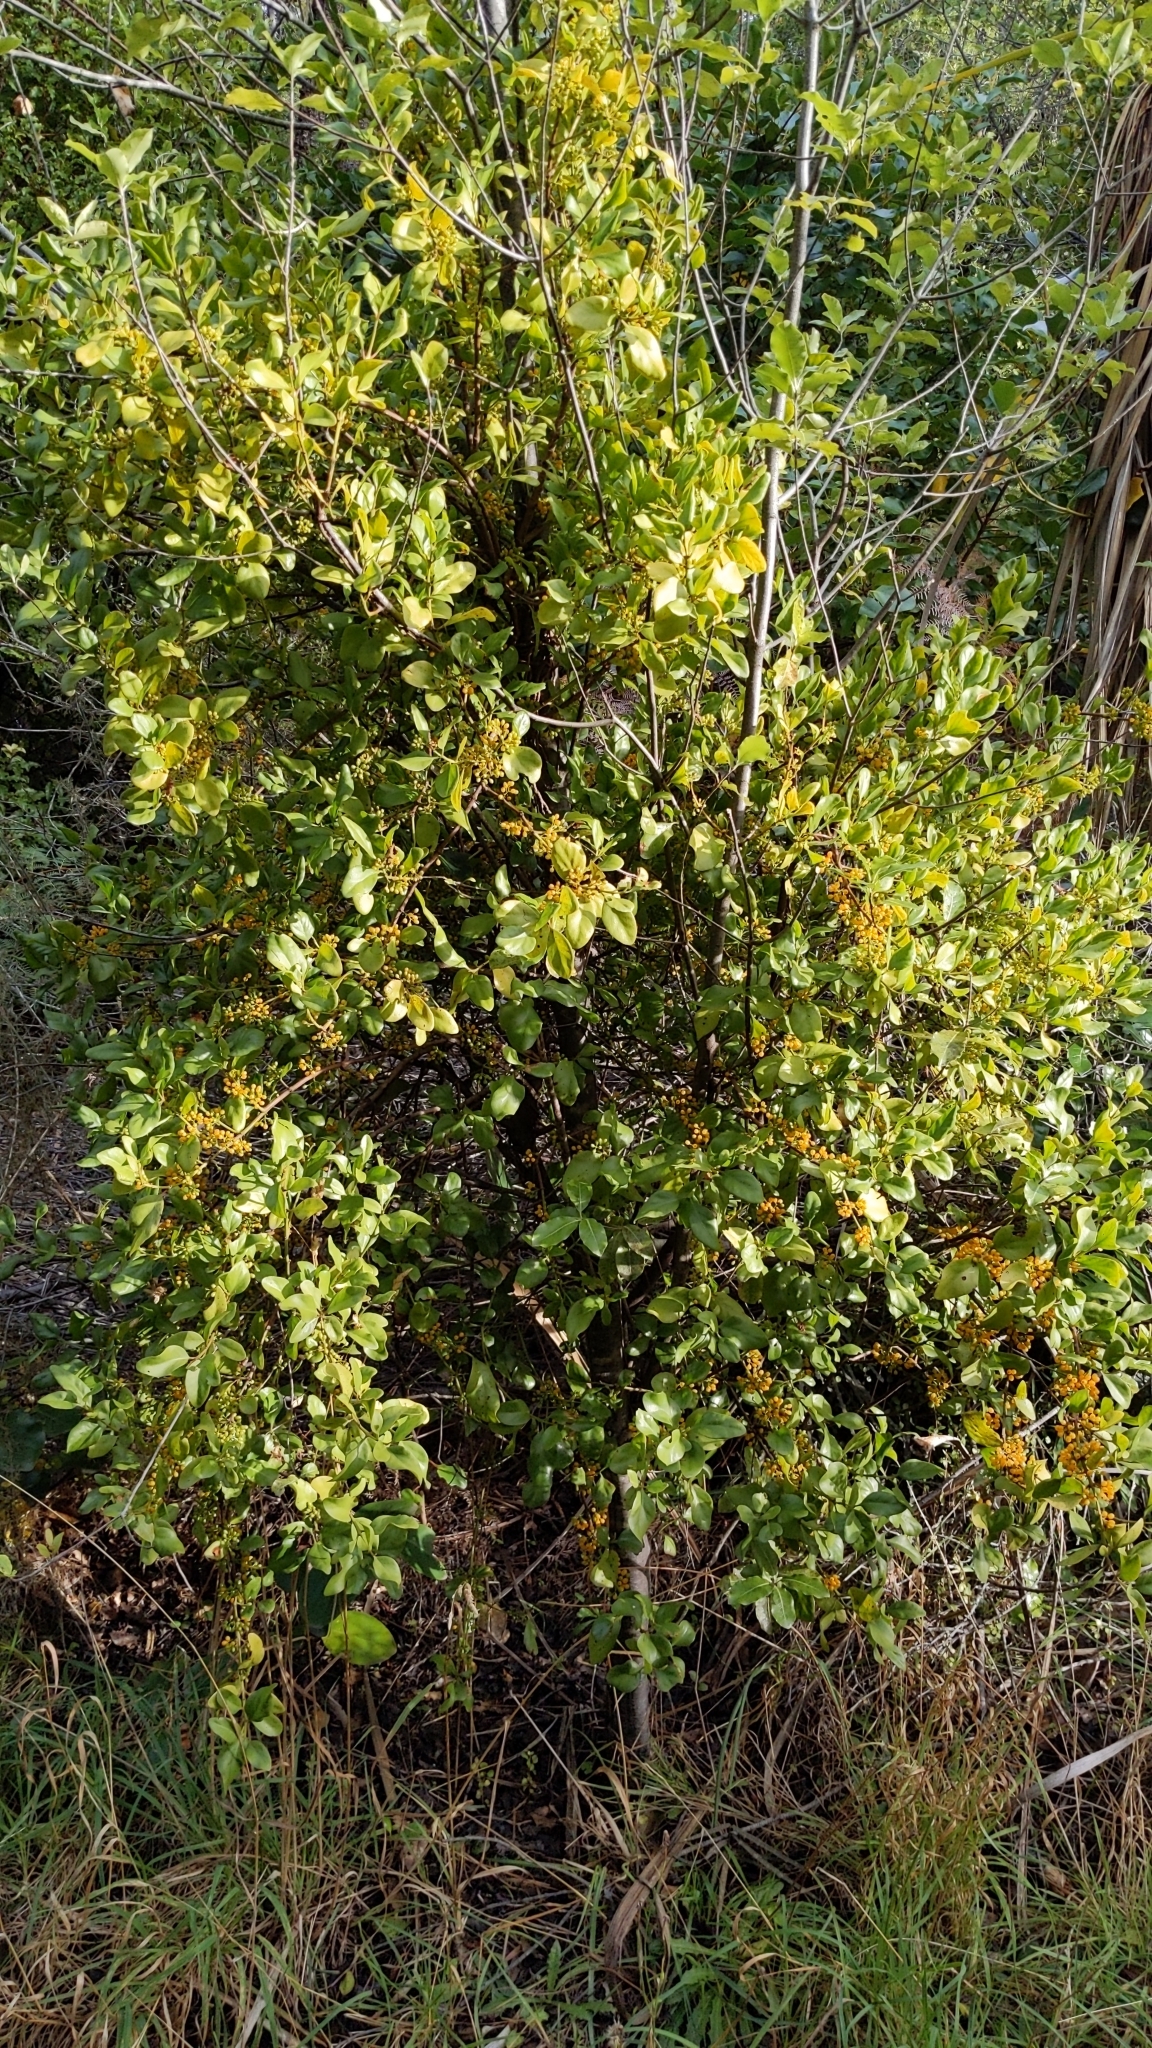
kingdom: Plantae
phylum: Tracheophyta
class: Magnoliopsida
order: Santalales
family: Loranthaceae
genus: Ileostylus
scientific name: Ileostylus micranthus
